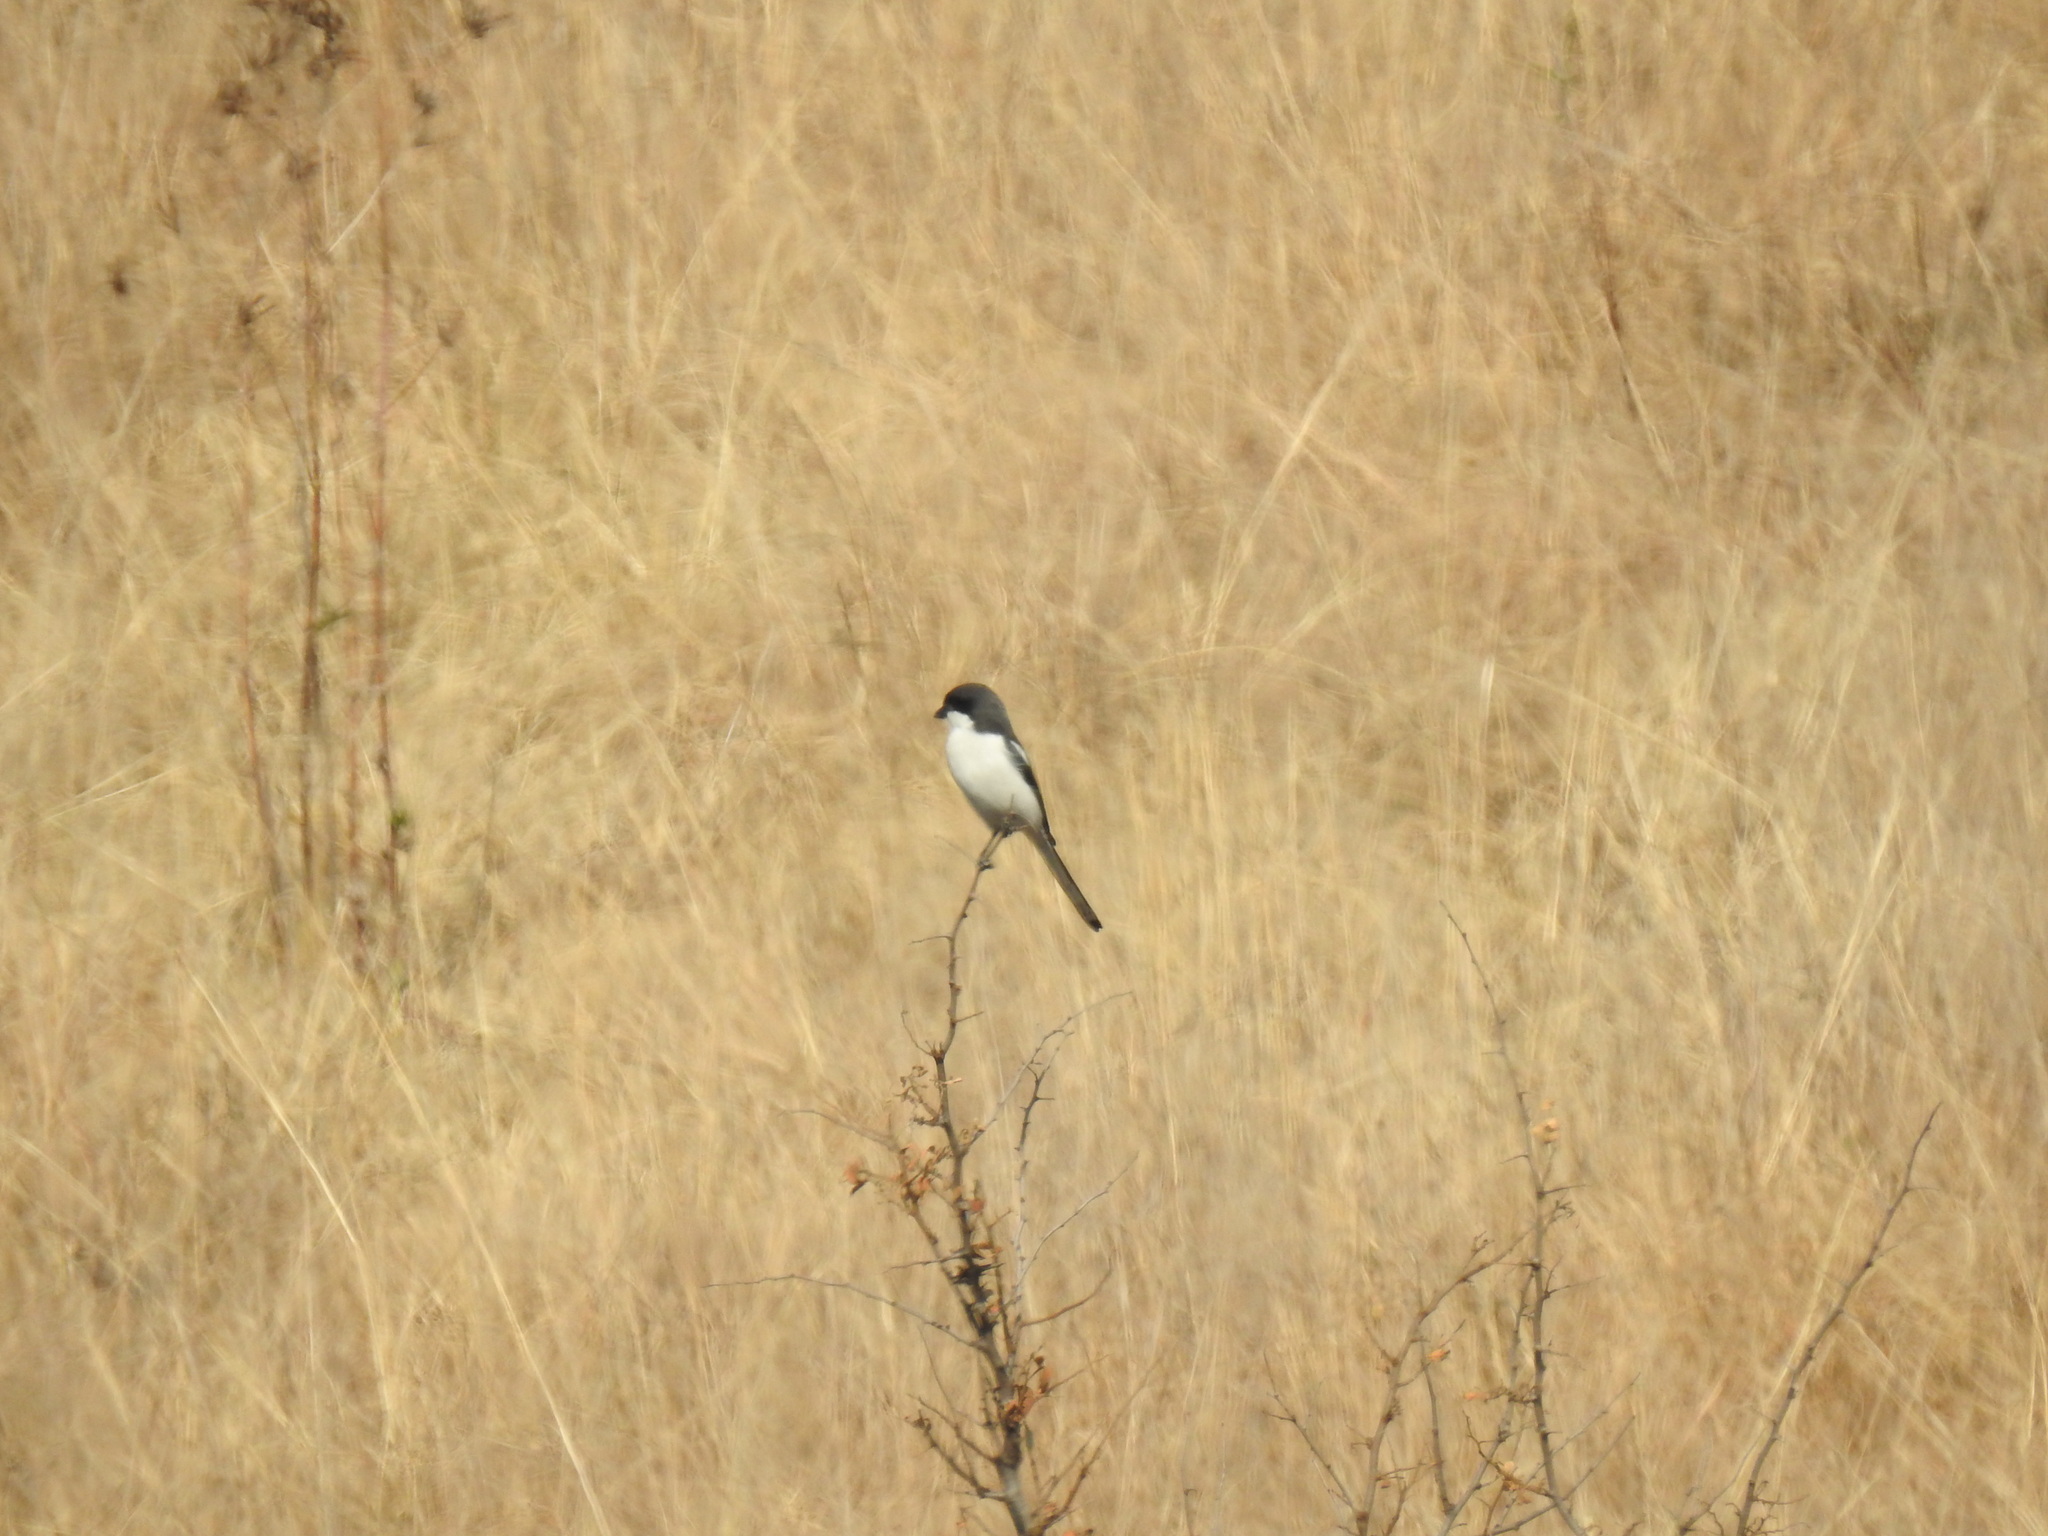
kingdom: Animalia
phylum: Chordata
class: Aves
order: Passeriformes
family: Laniidae
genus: Lanius
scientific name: Lanius collaris
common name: Southern fiscal
